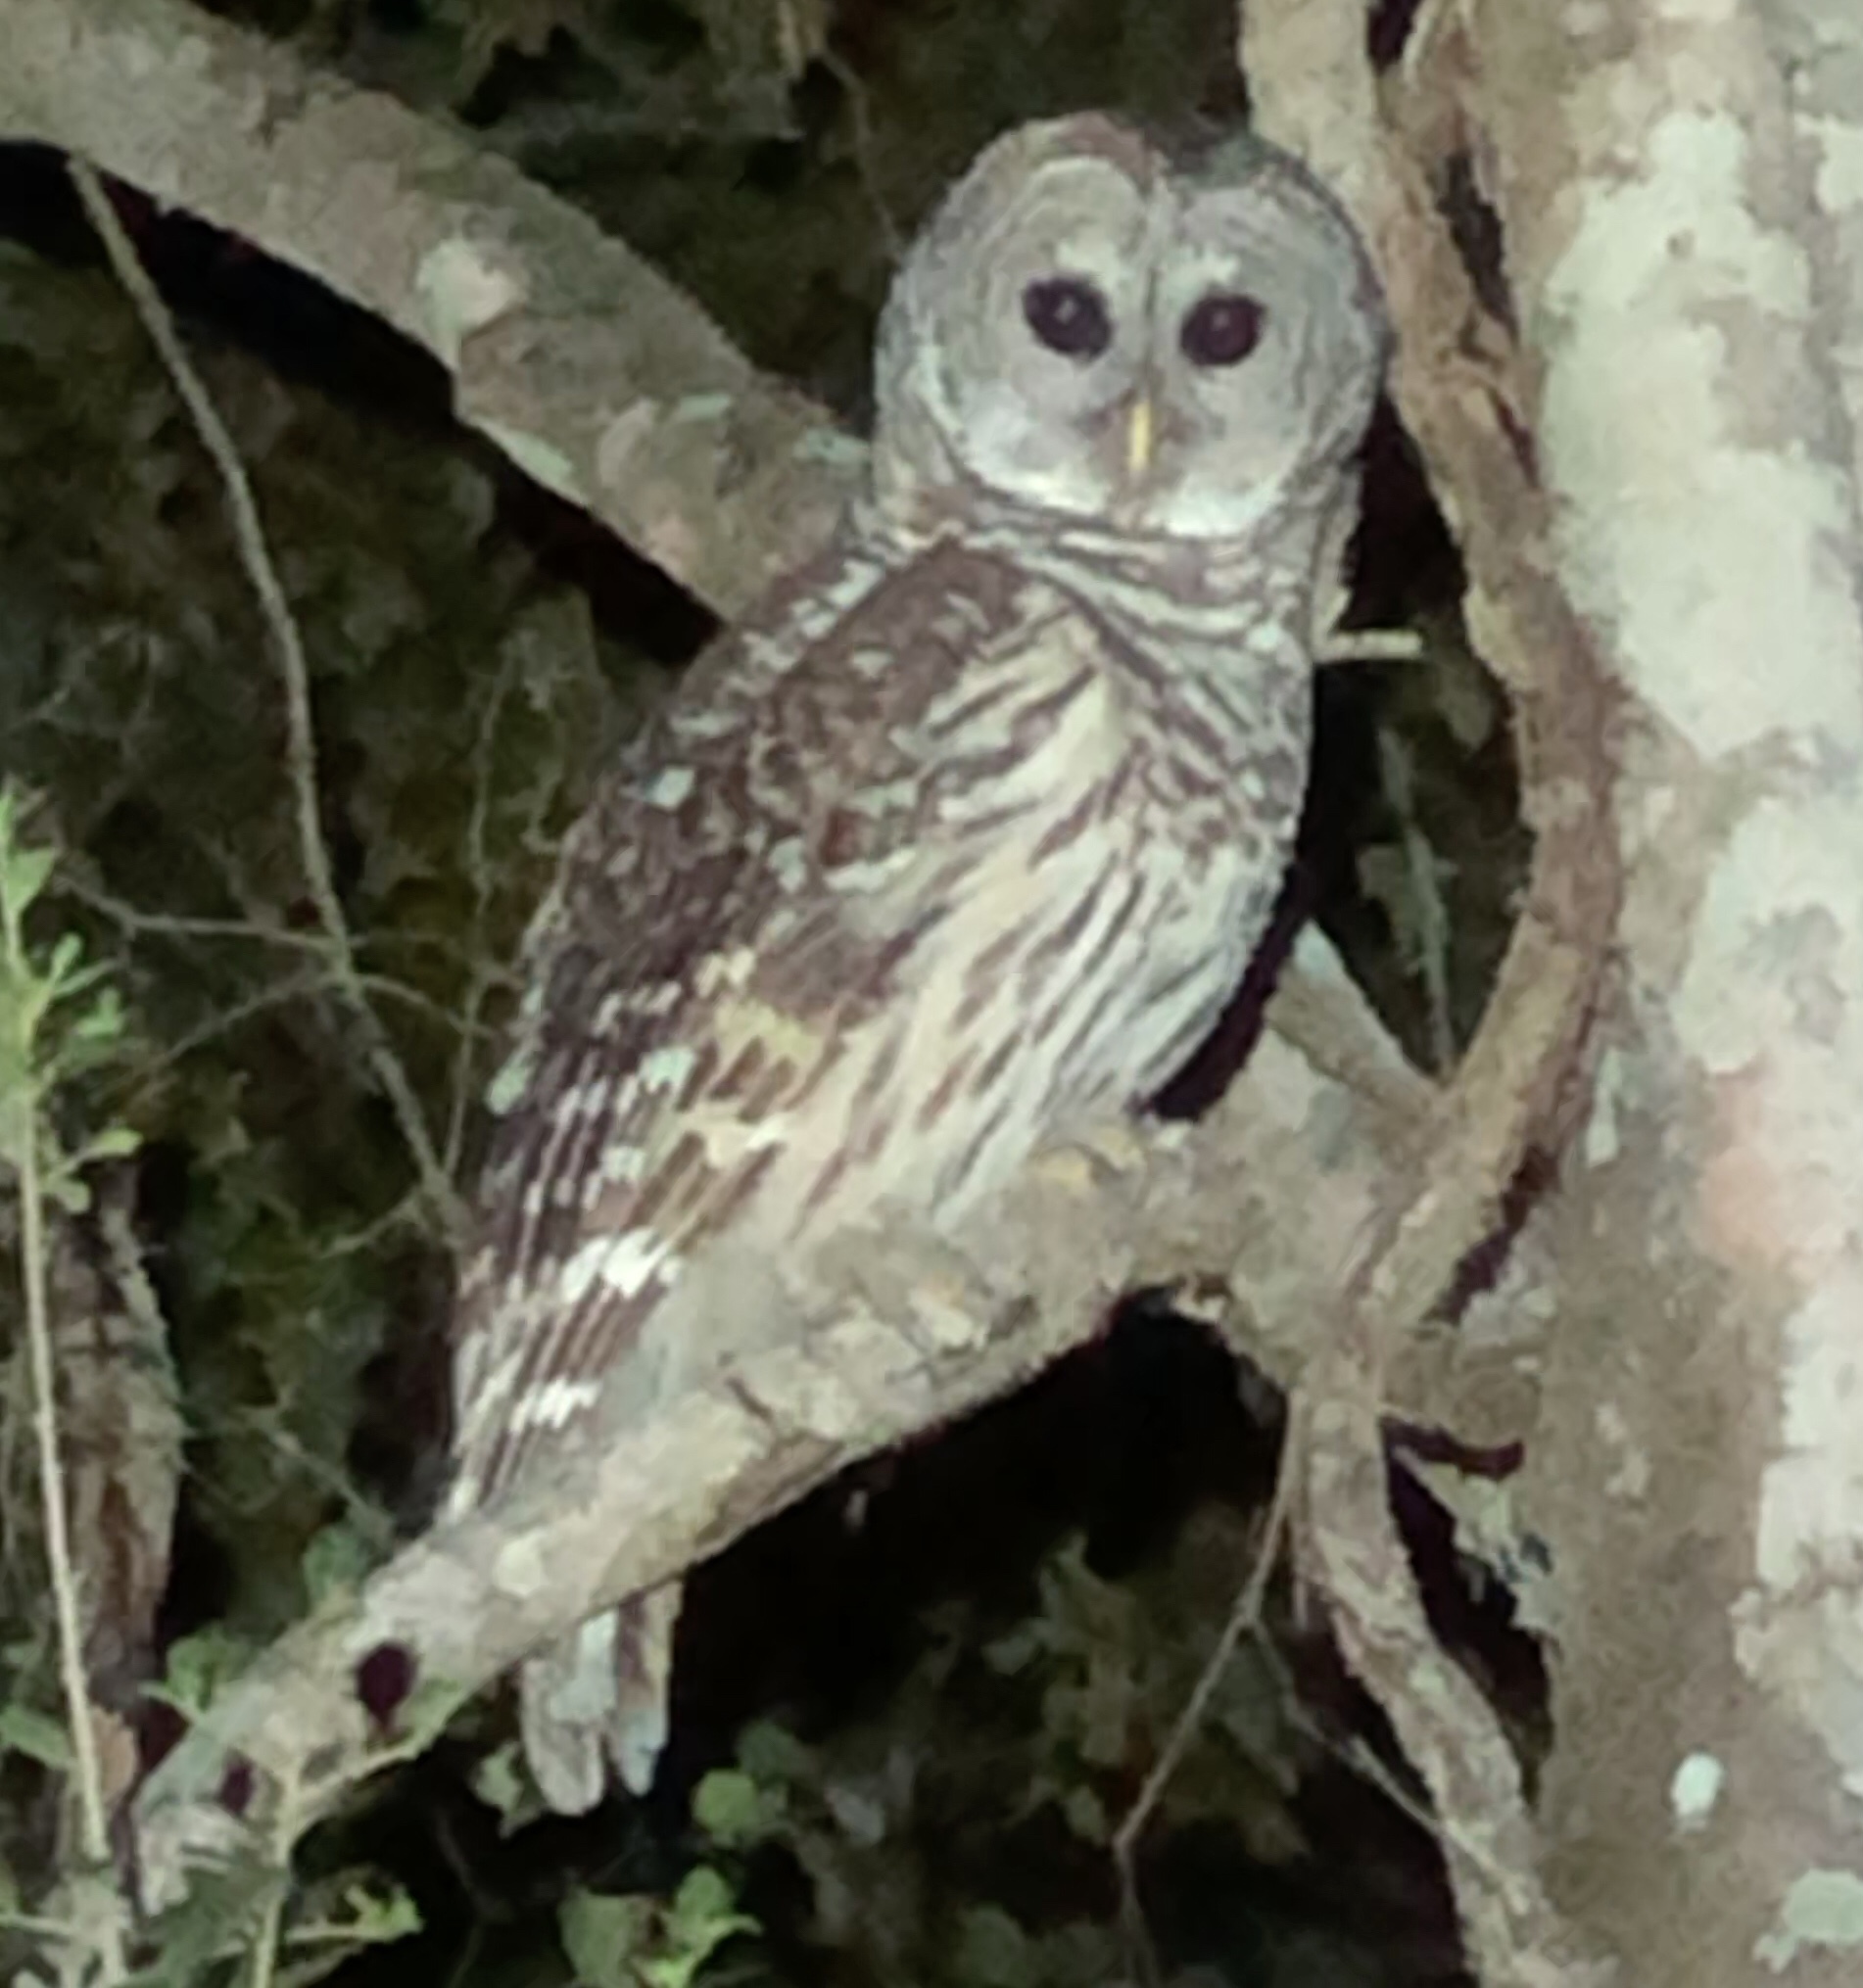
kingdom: Animalia
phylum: Chordata
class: Aves
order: Strigiformes
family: Strigidae
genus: Strix
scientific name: Strix varia
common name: Barred owl
